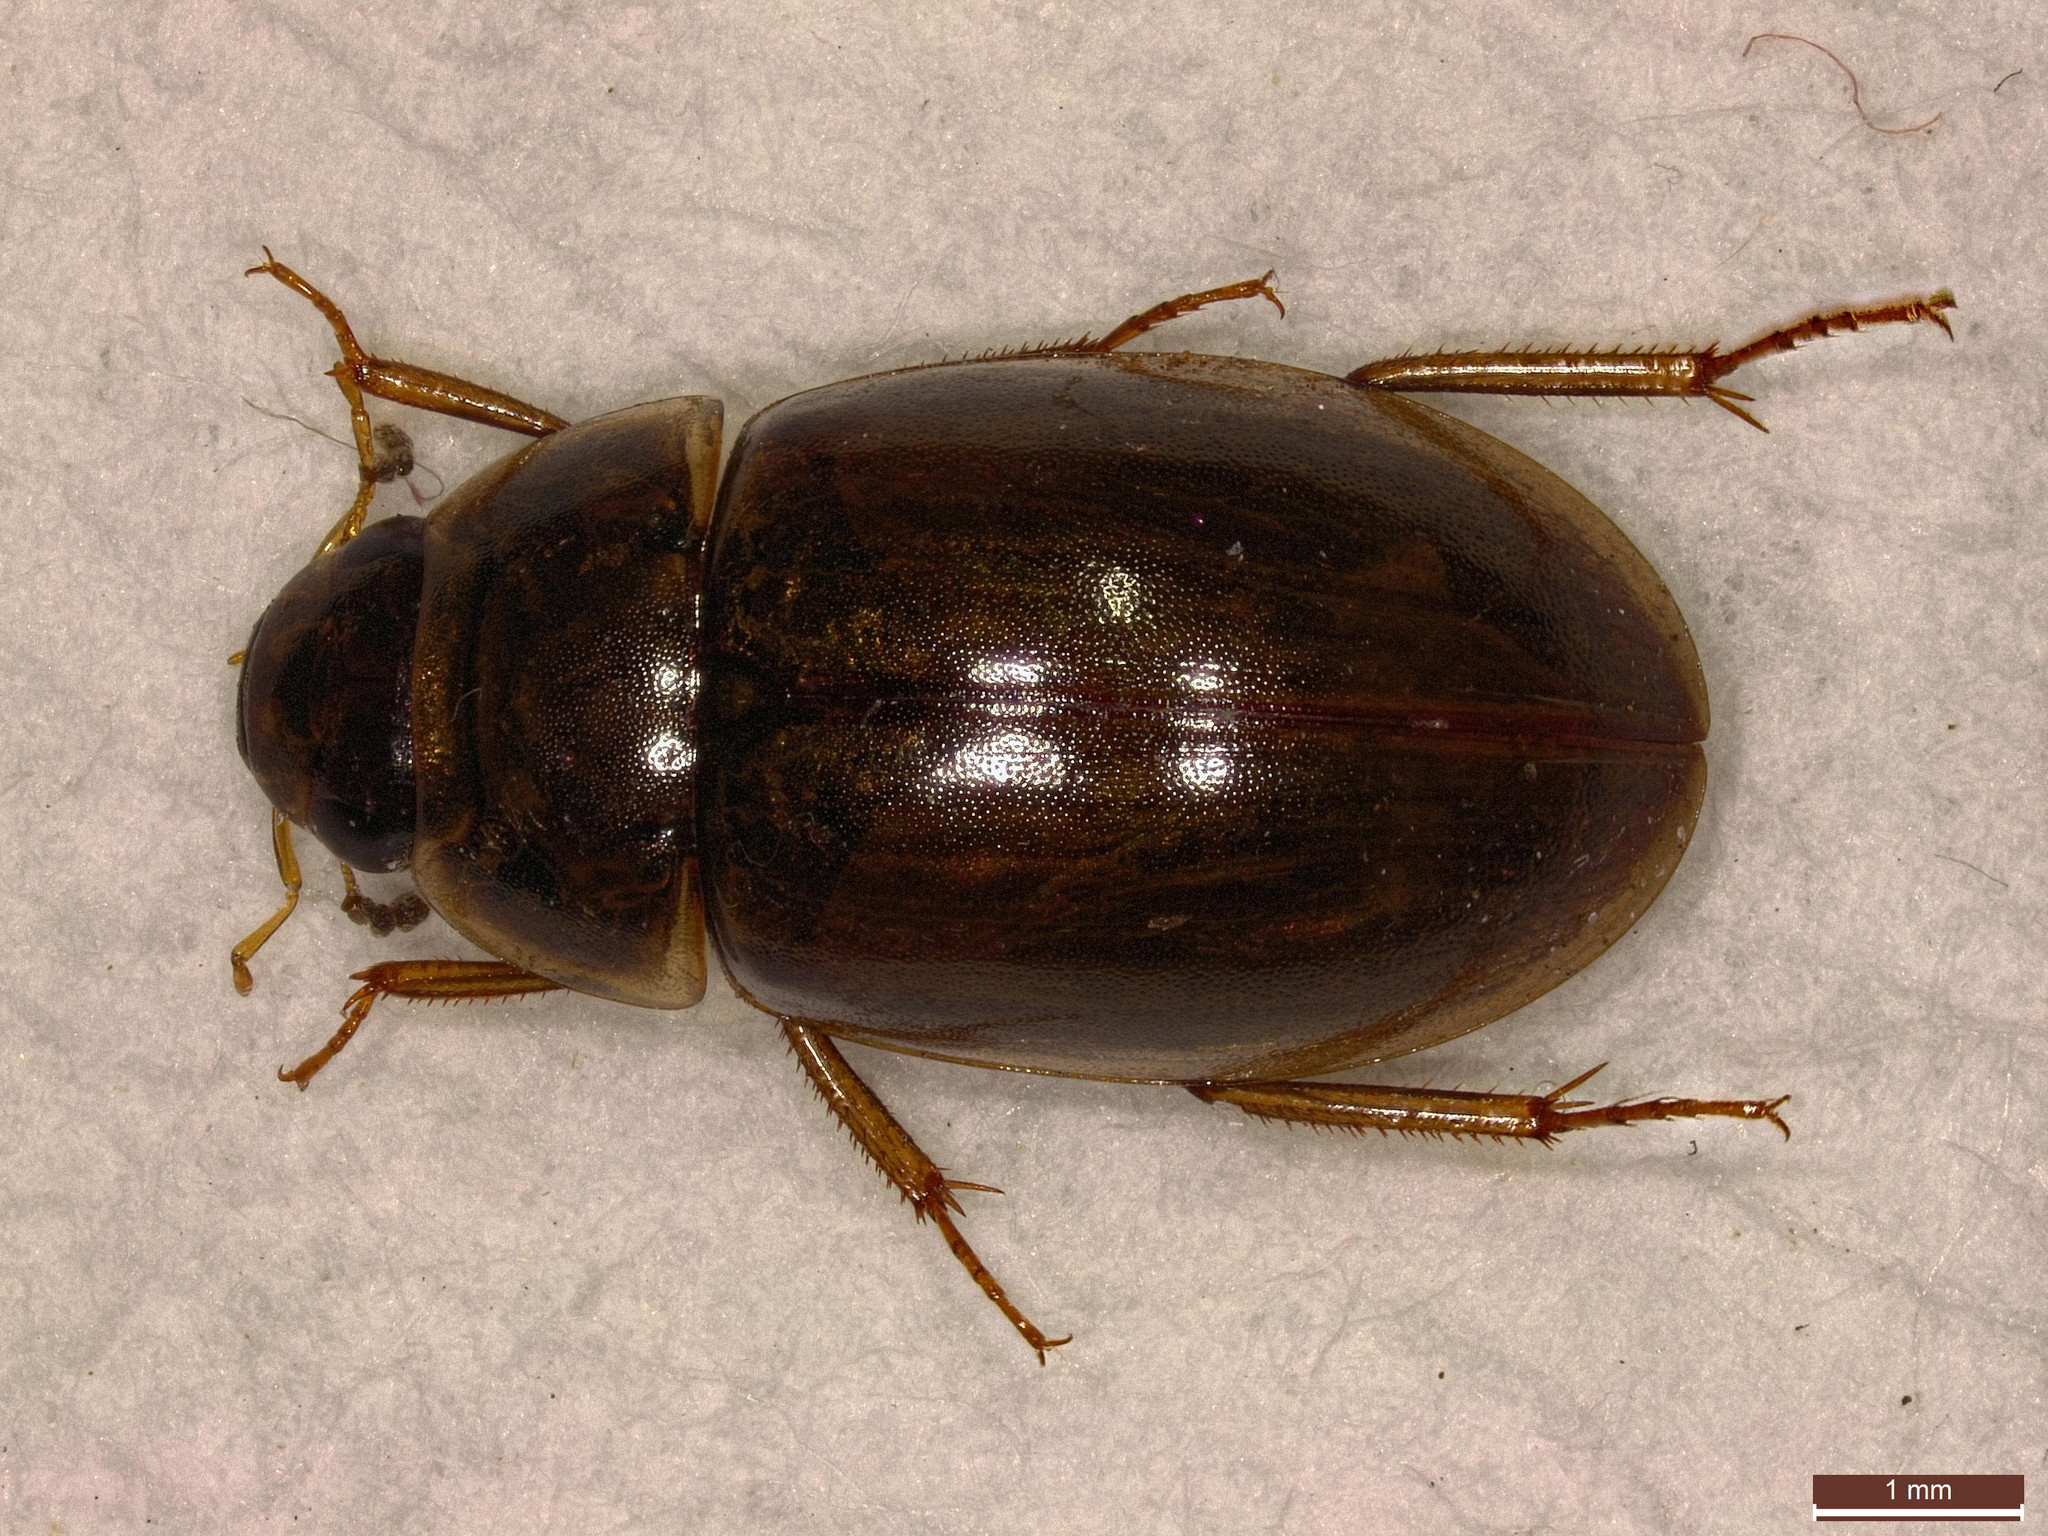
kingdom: Animalia
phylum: Arthropoda
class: Insecta
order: Coleoptera
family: Hydrophilidae
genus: Enochrus
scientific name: Enochrus bicolor
